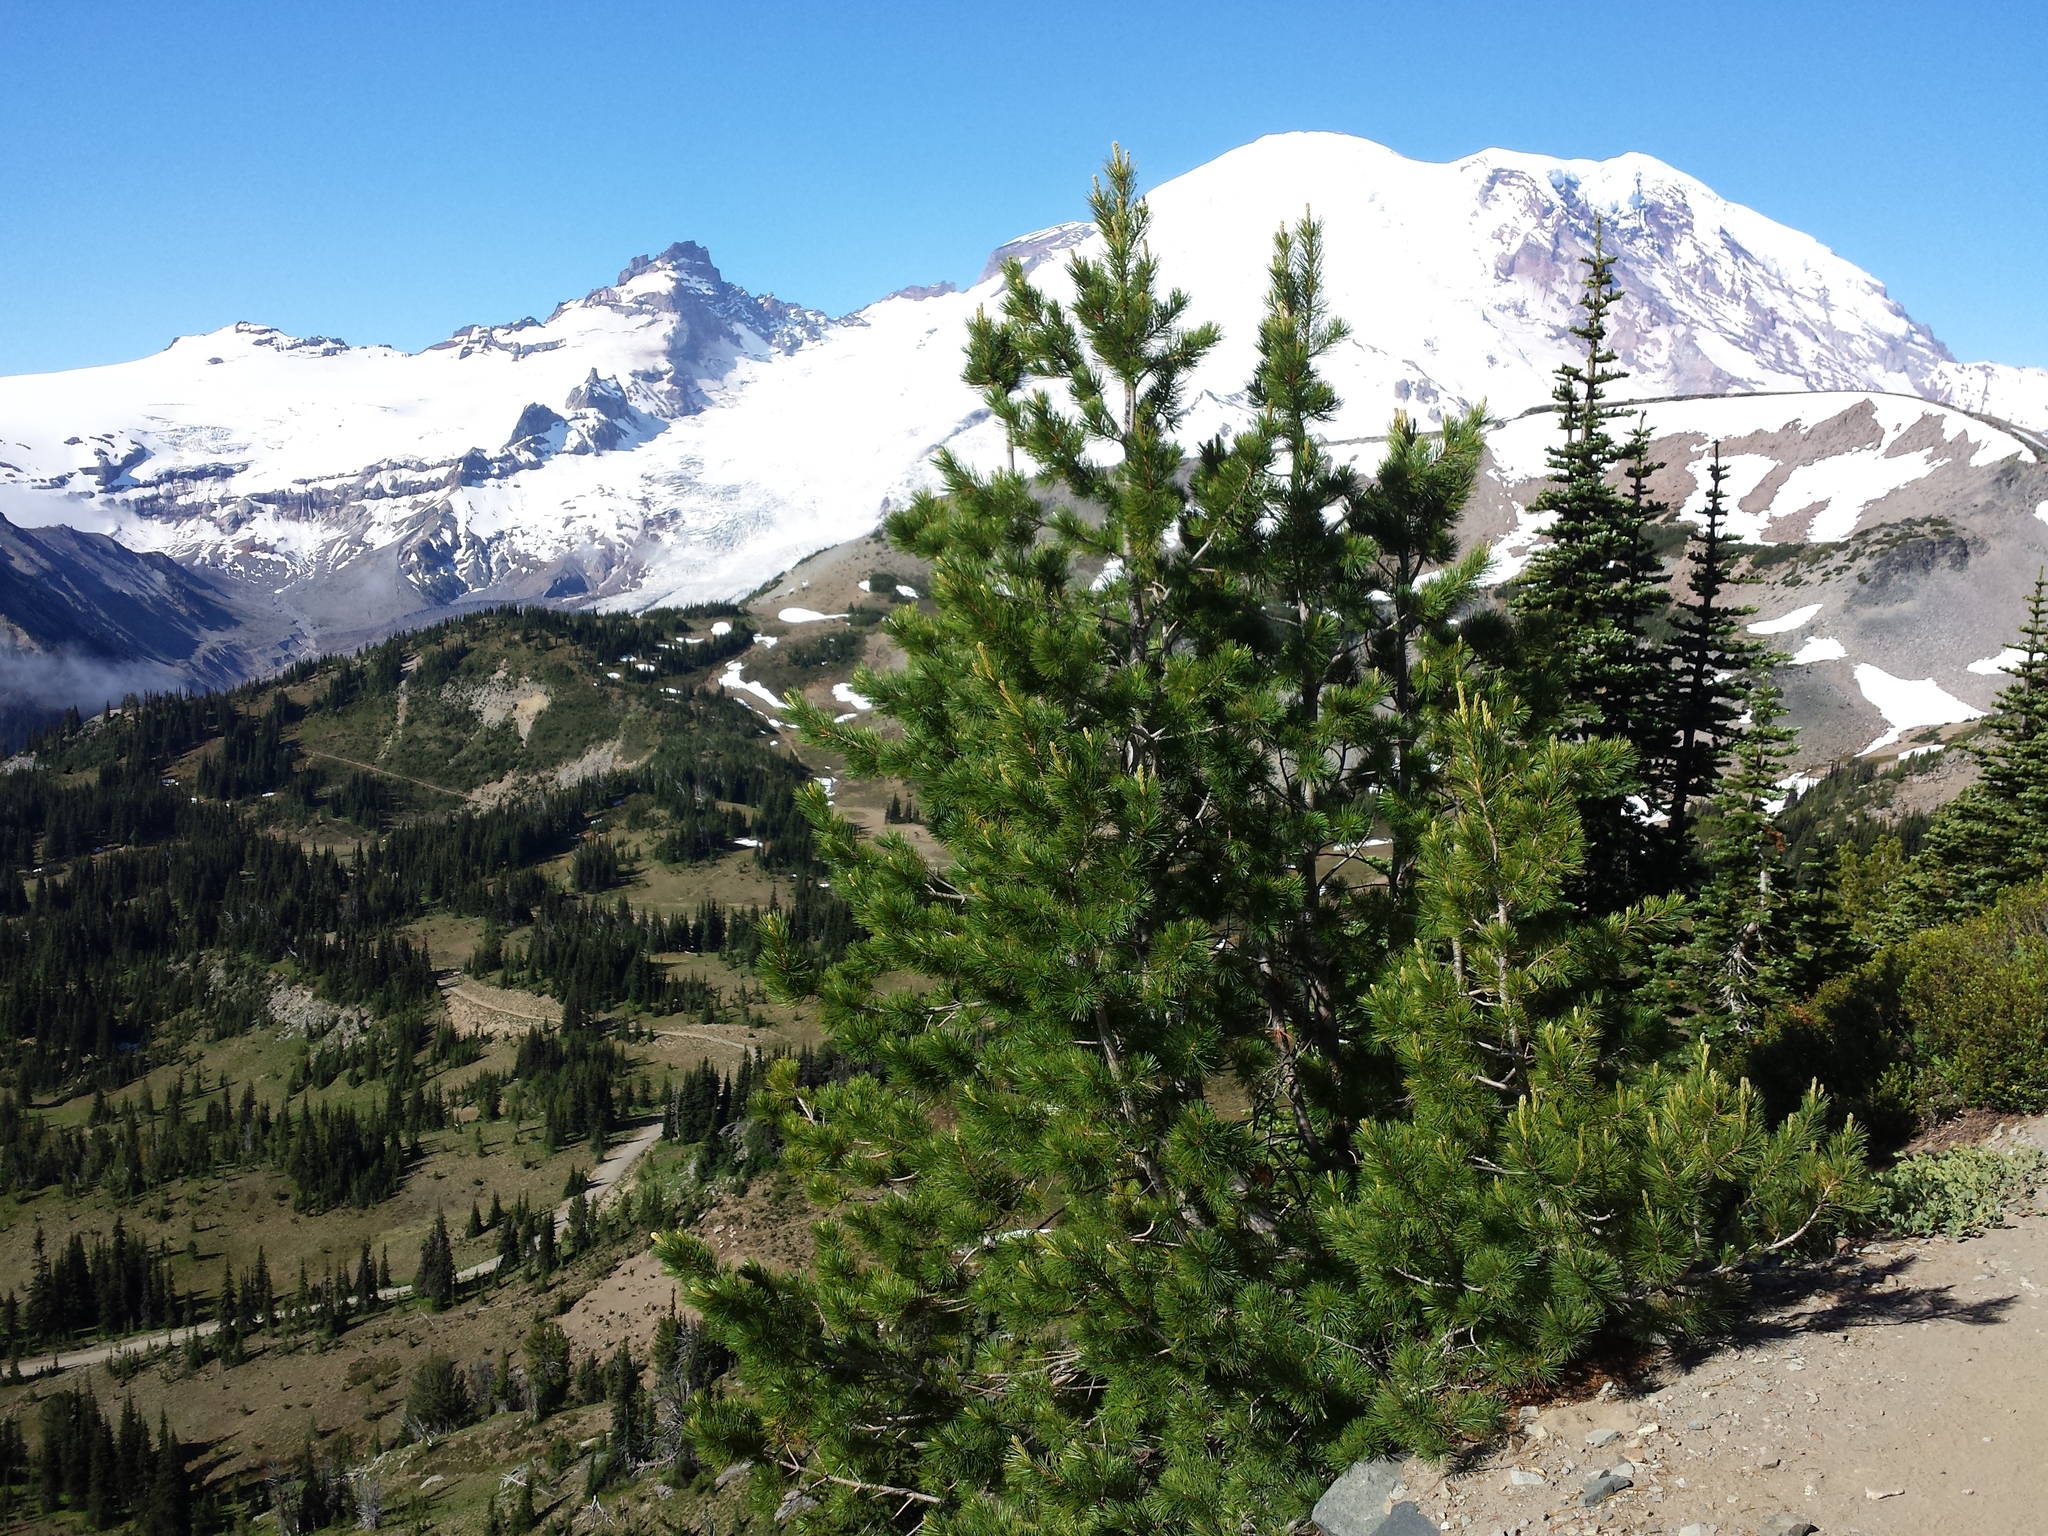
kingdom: Plantae
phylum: Tracheophyta
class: Pinopsida
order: Pinales
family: Pinaceae
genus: Pinus
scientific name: Pinus albicaulis
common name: Whitebark pine
